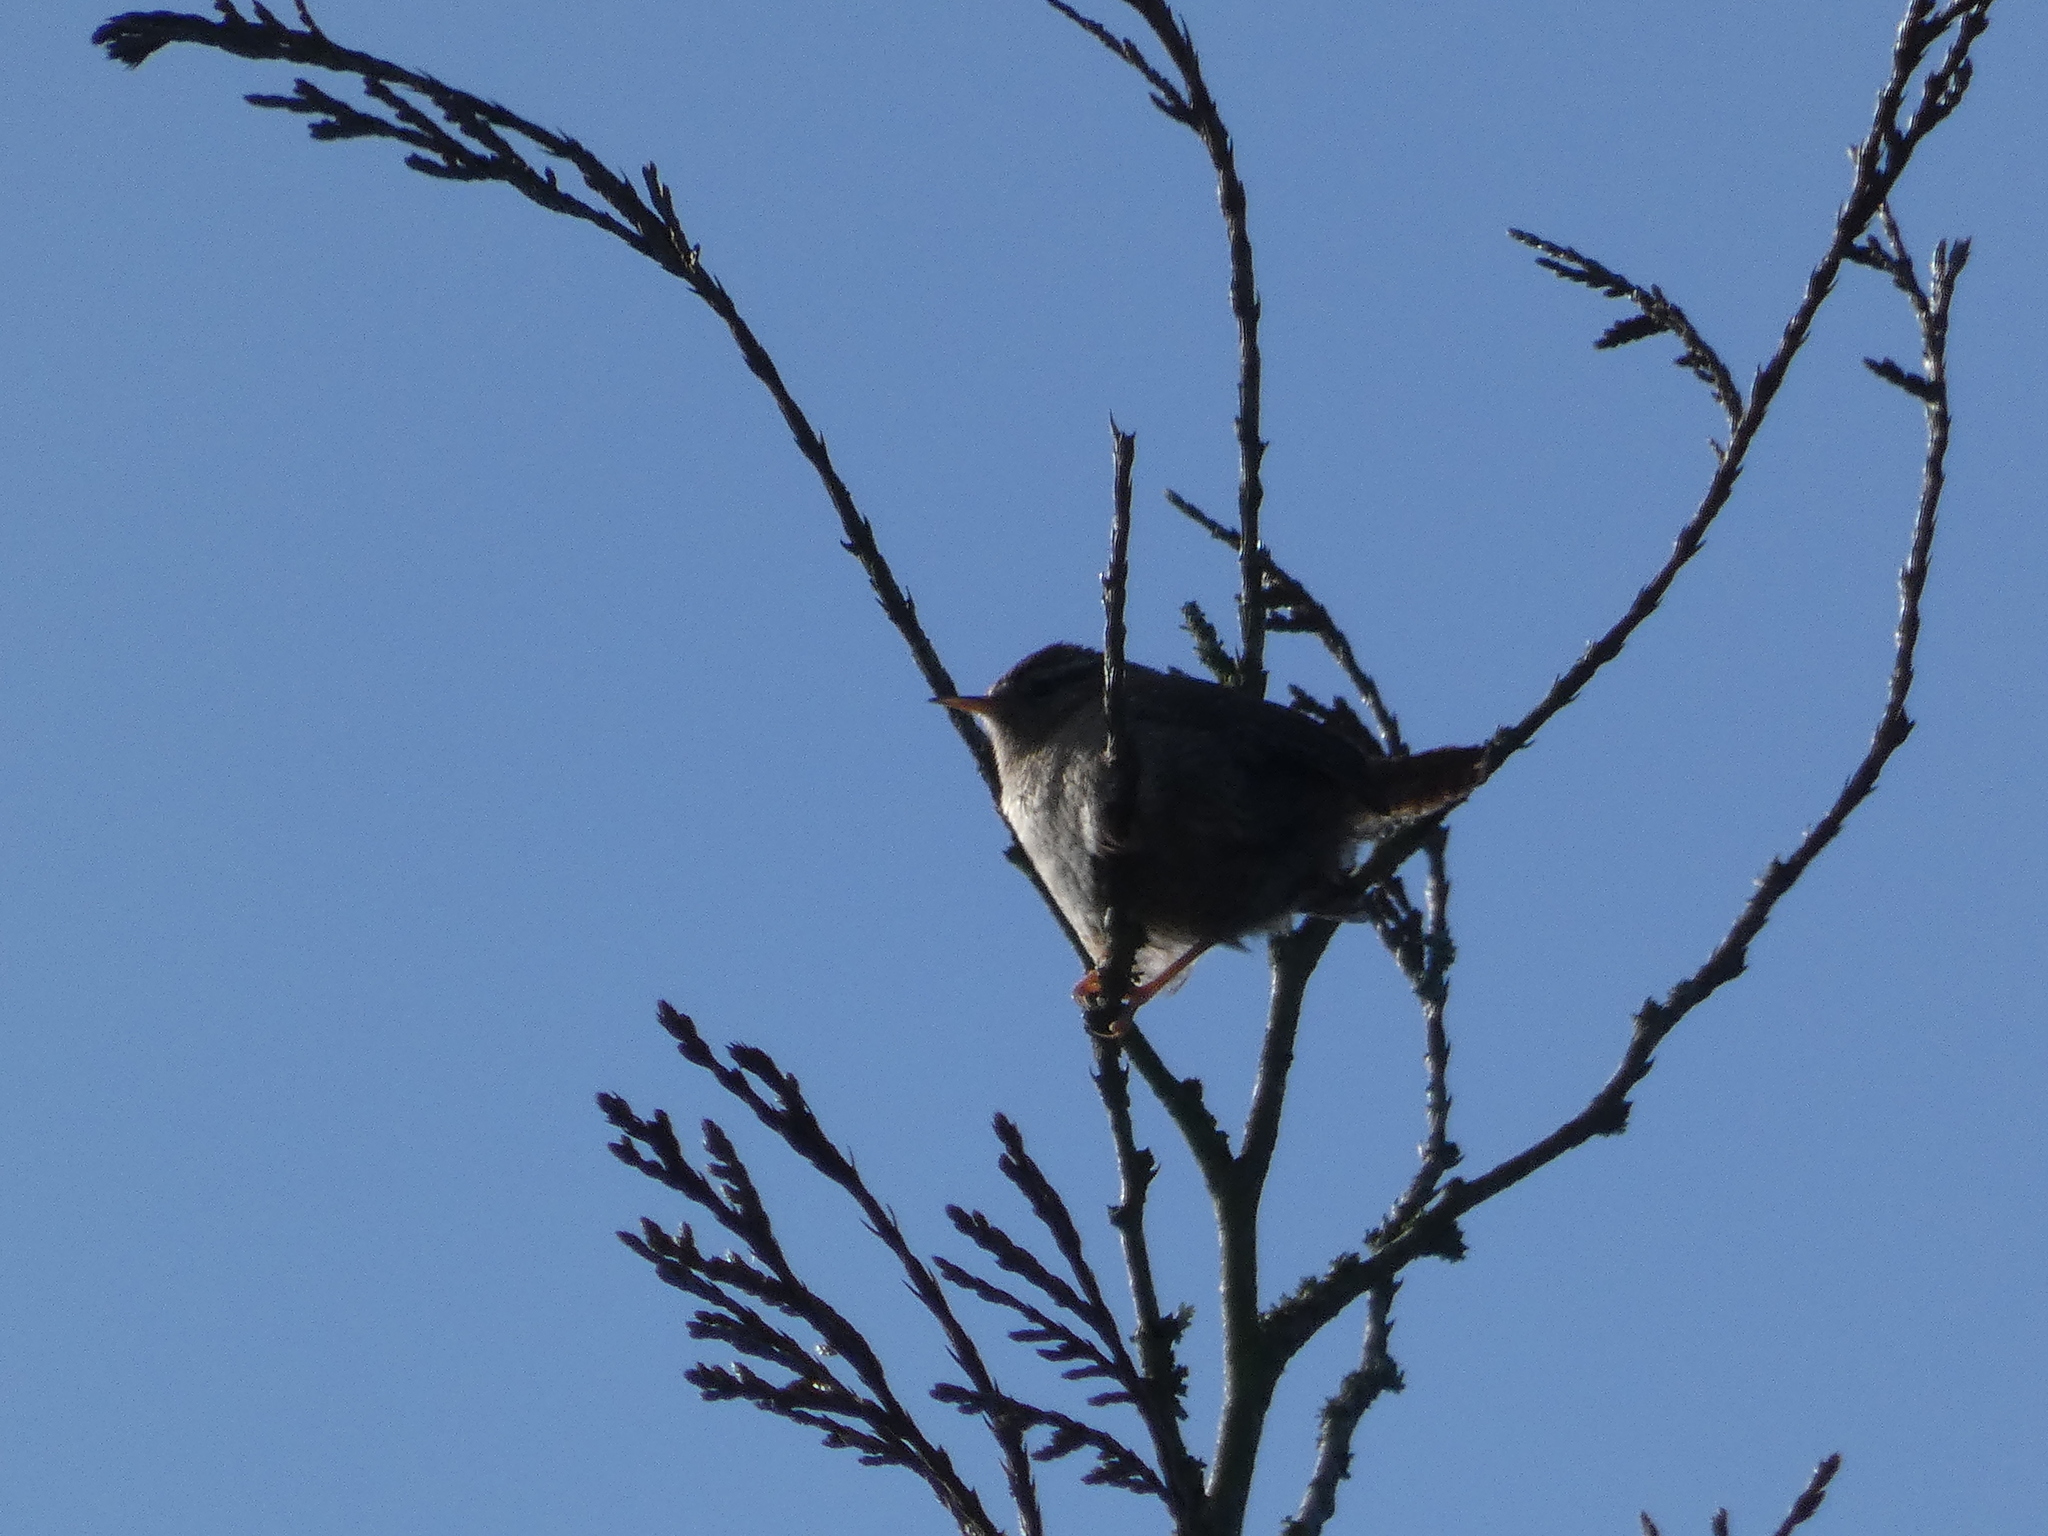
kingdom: Animalia
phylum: Chordata
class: Aves
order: Passeriformes
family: Troglodytidae
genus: Troglodytes
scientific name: Troglodytes troglodytes
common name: Eurasian wren
